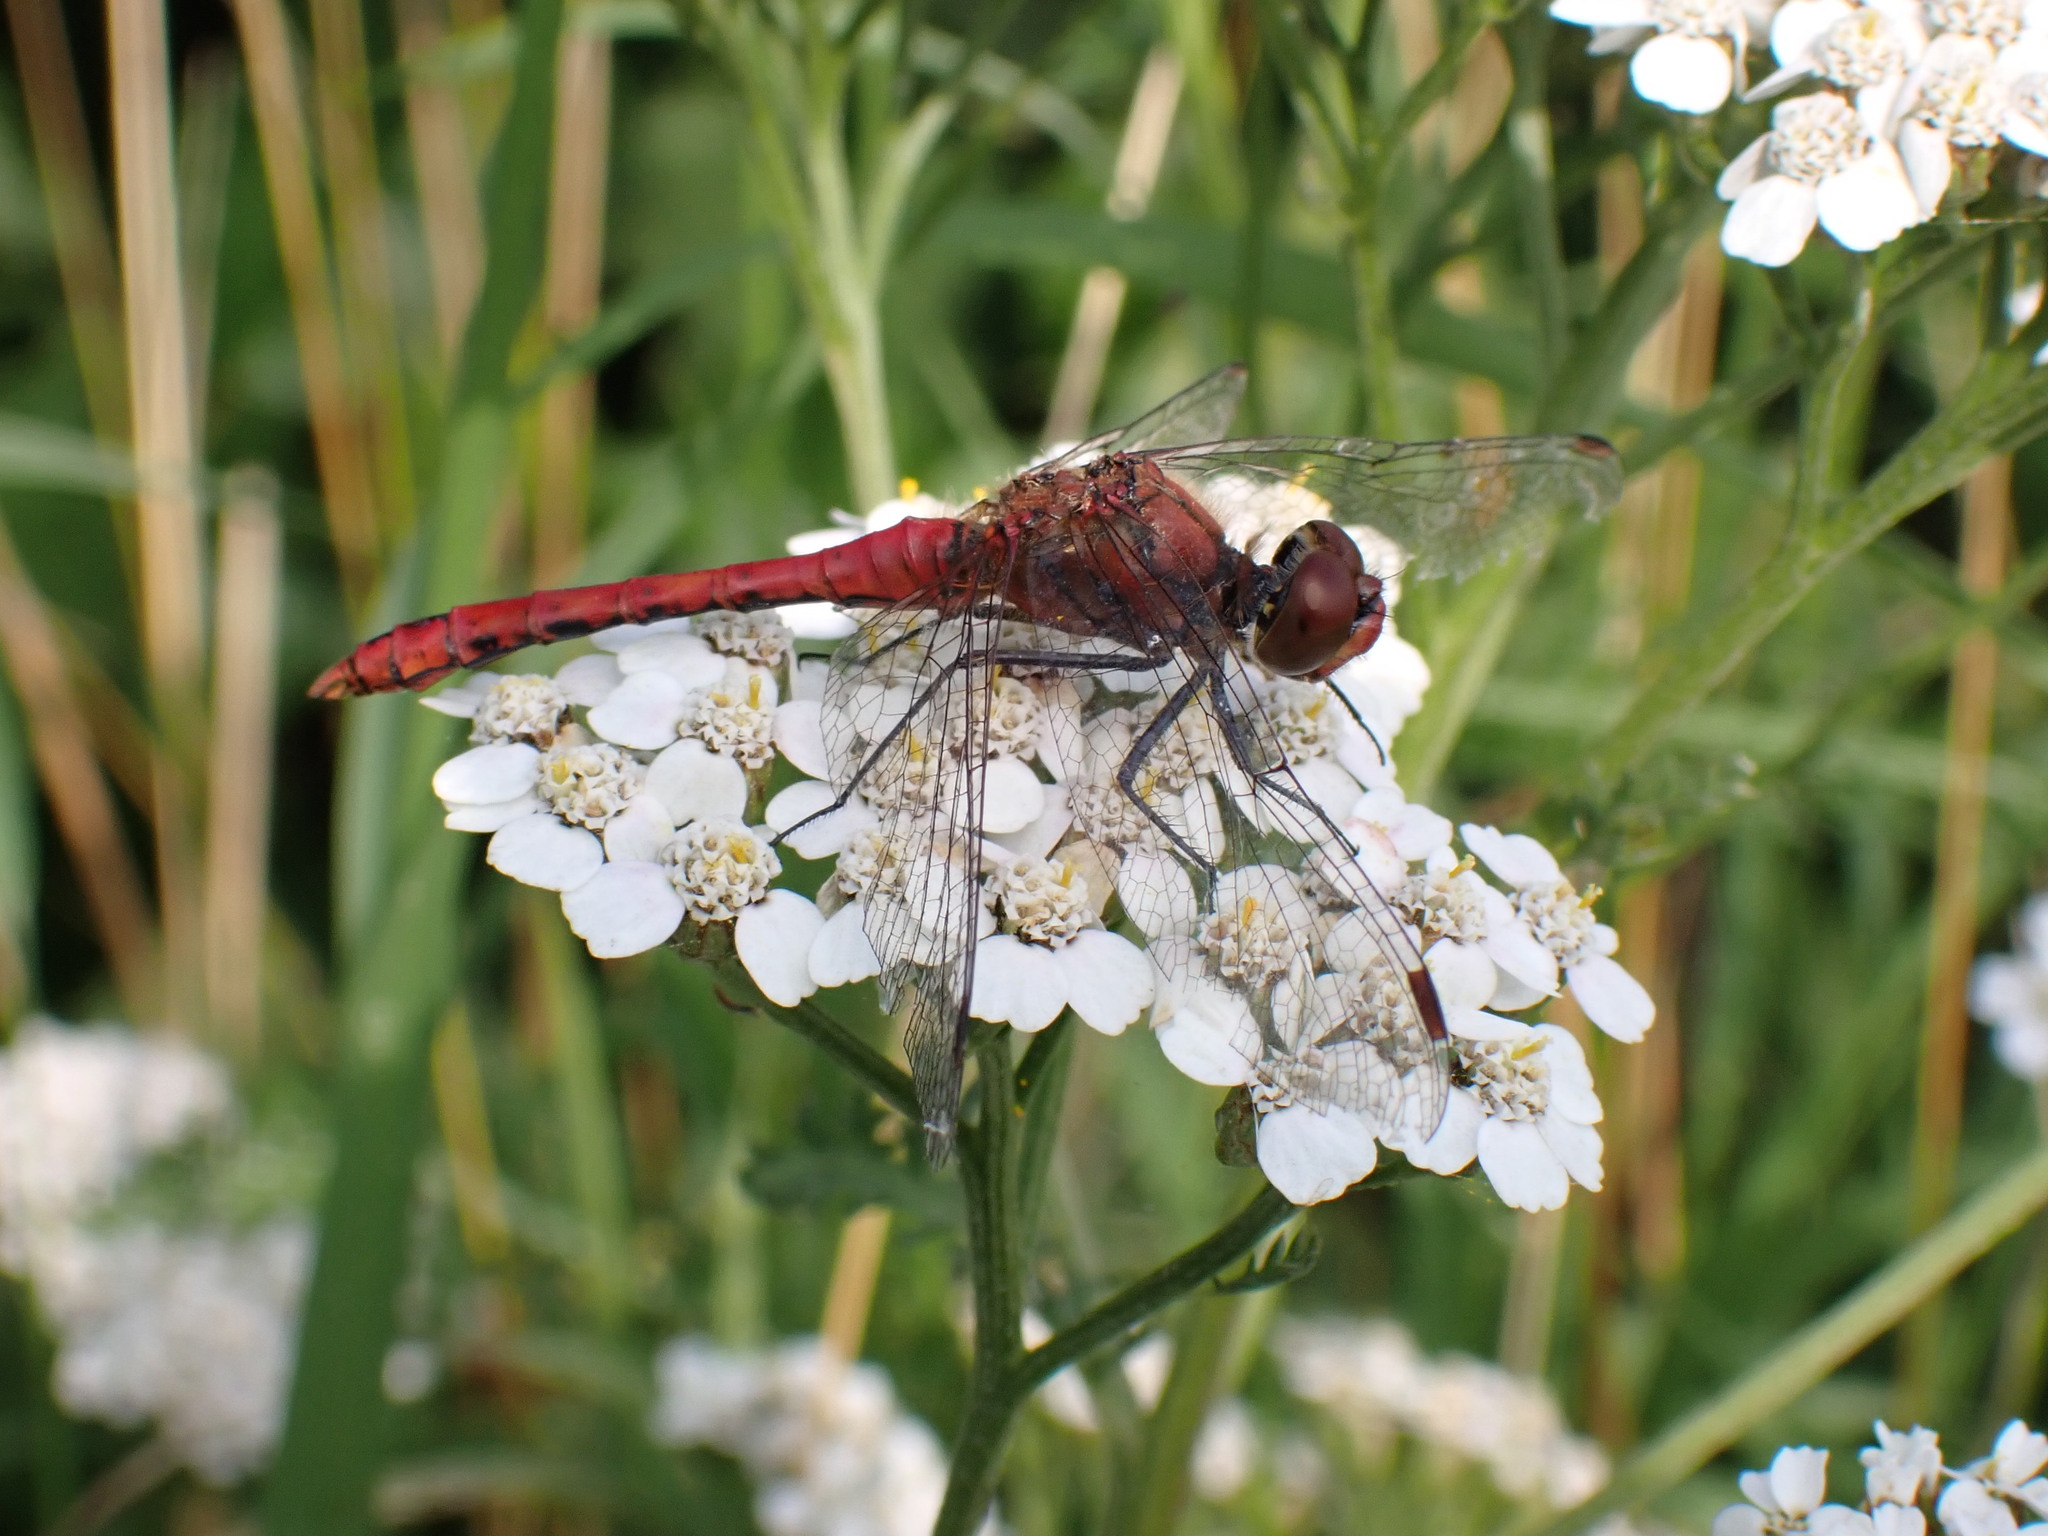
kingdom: Animalia
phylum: Arthropoda
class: Insecta
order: Odonata
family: Libellulidae
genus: Sympetrum
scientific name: Sympetrum sanguineum
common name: Ruddy darter
